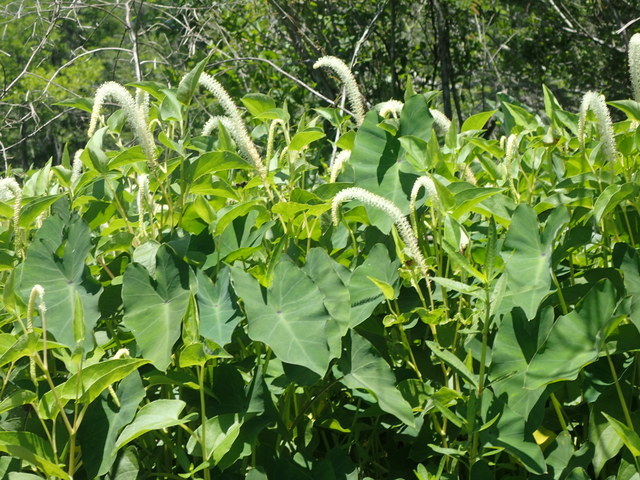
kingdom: Plantae
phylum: Tracheophyta
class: Magnoliopsida
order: Piperales
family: Saururaceae
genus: Saururus
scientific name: Saururus cernuus
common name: Lizard's-tail
